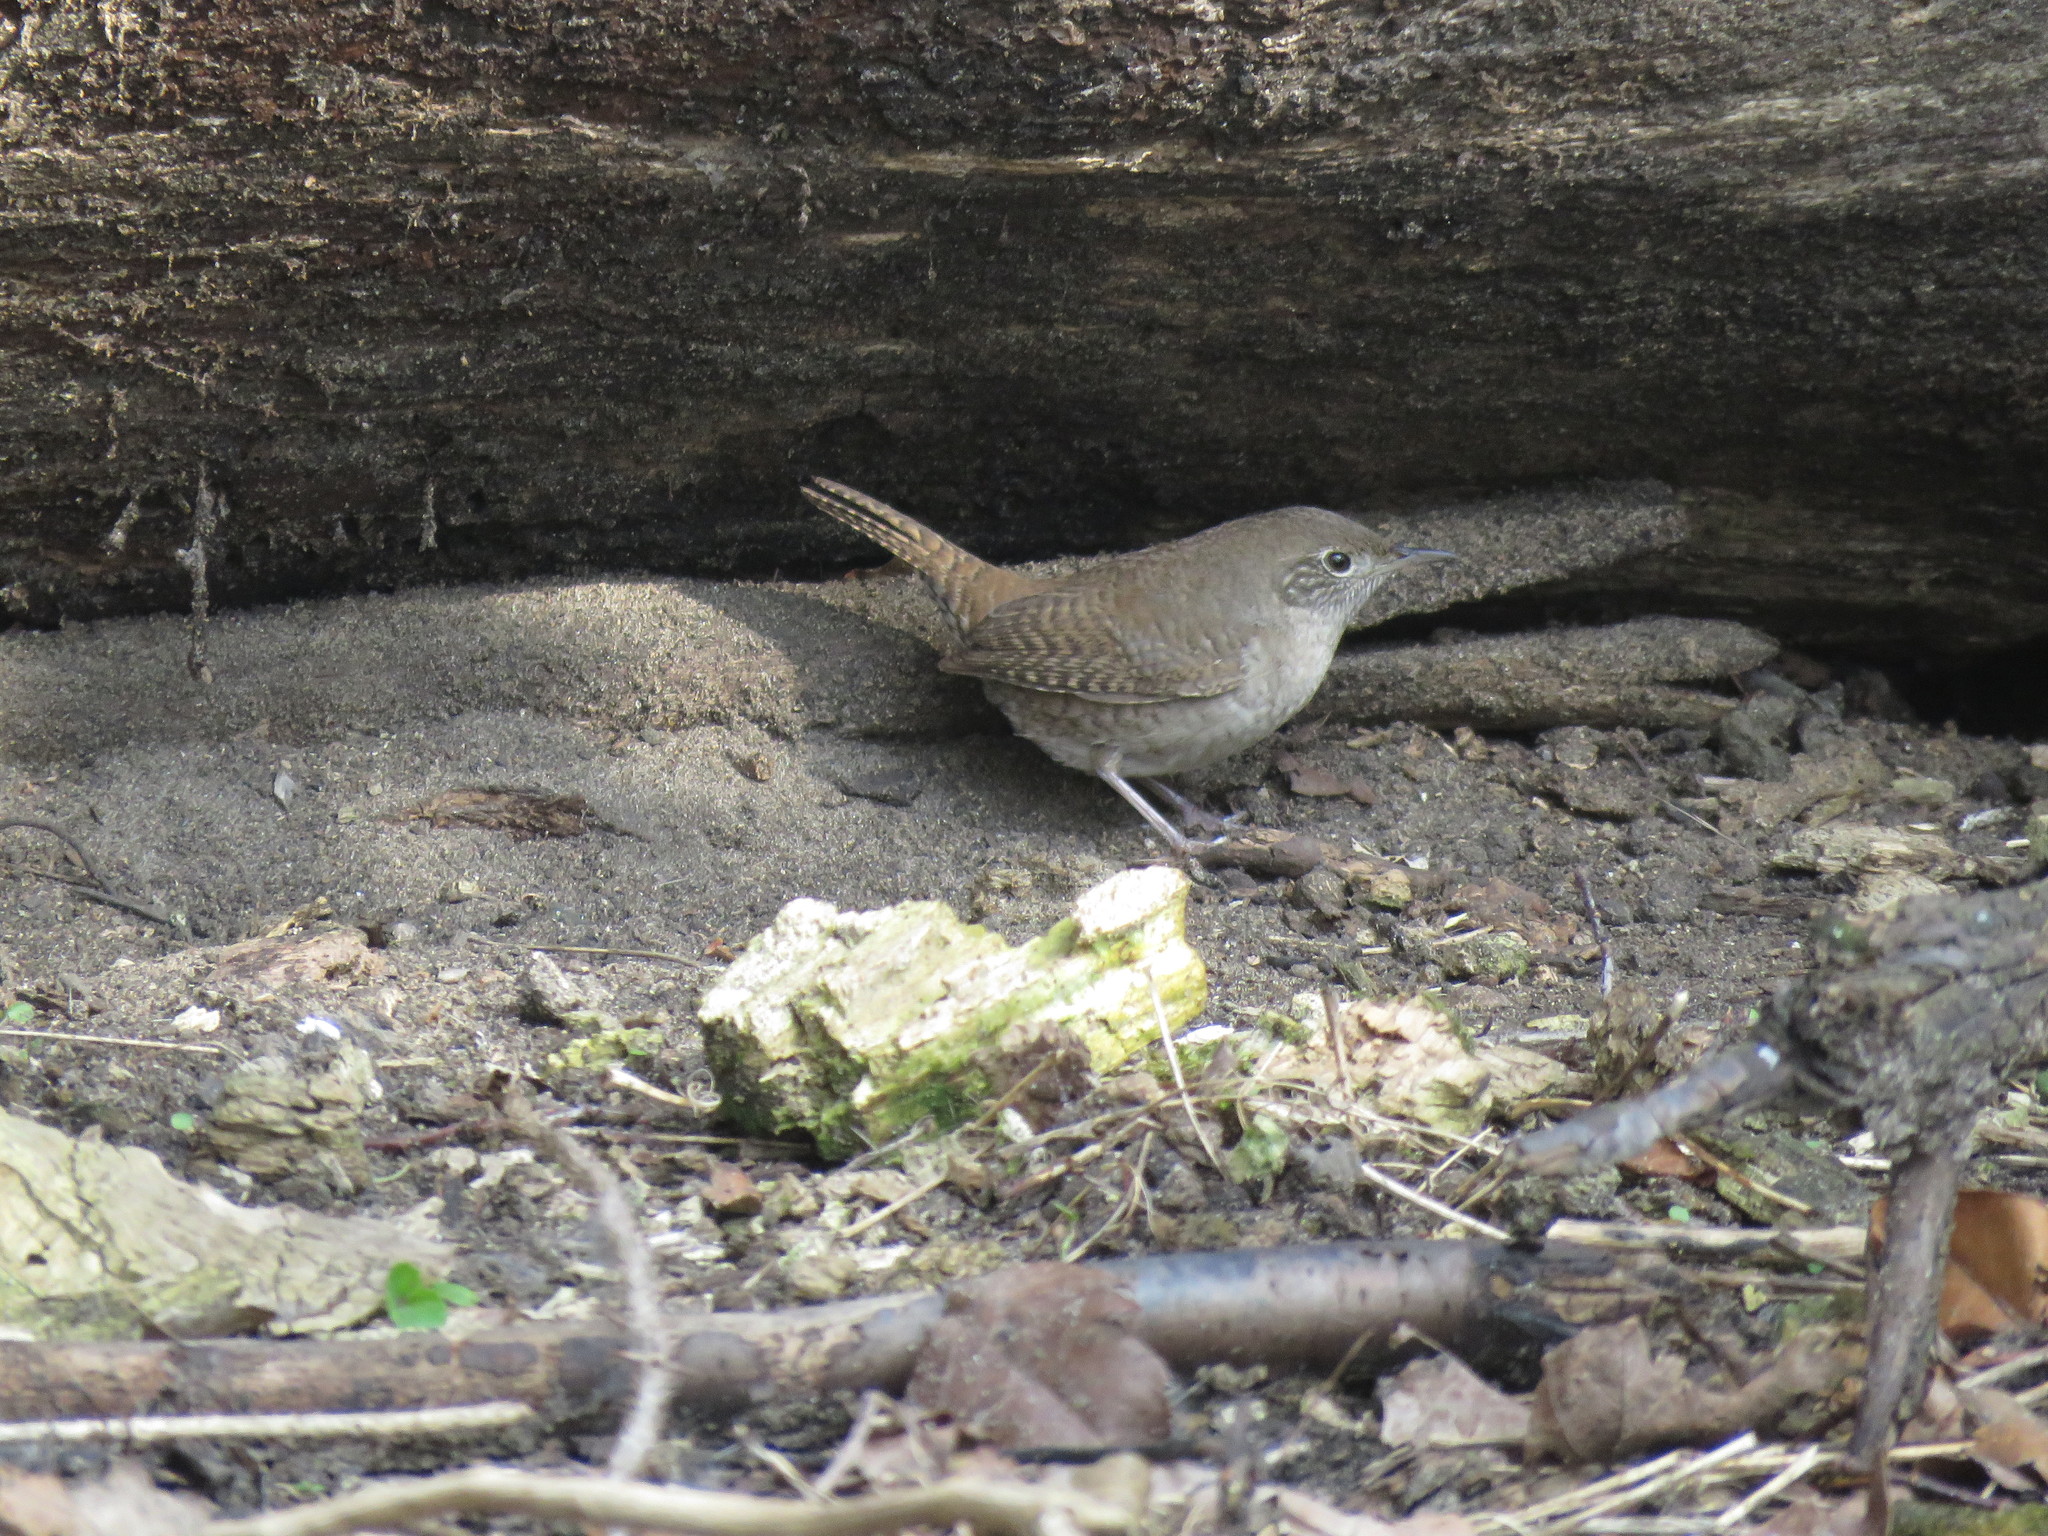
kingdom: Animalia
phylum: Chordata
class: Aves
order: Passeriformes
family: Troglodytidae
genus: Troglodytes
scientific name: Troglodytes aedon
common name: House wren
